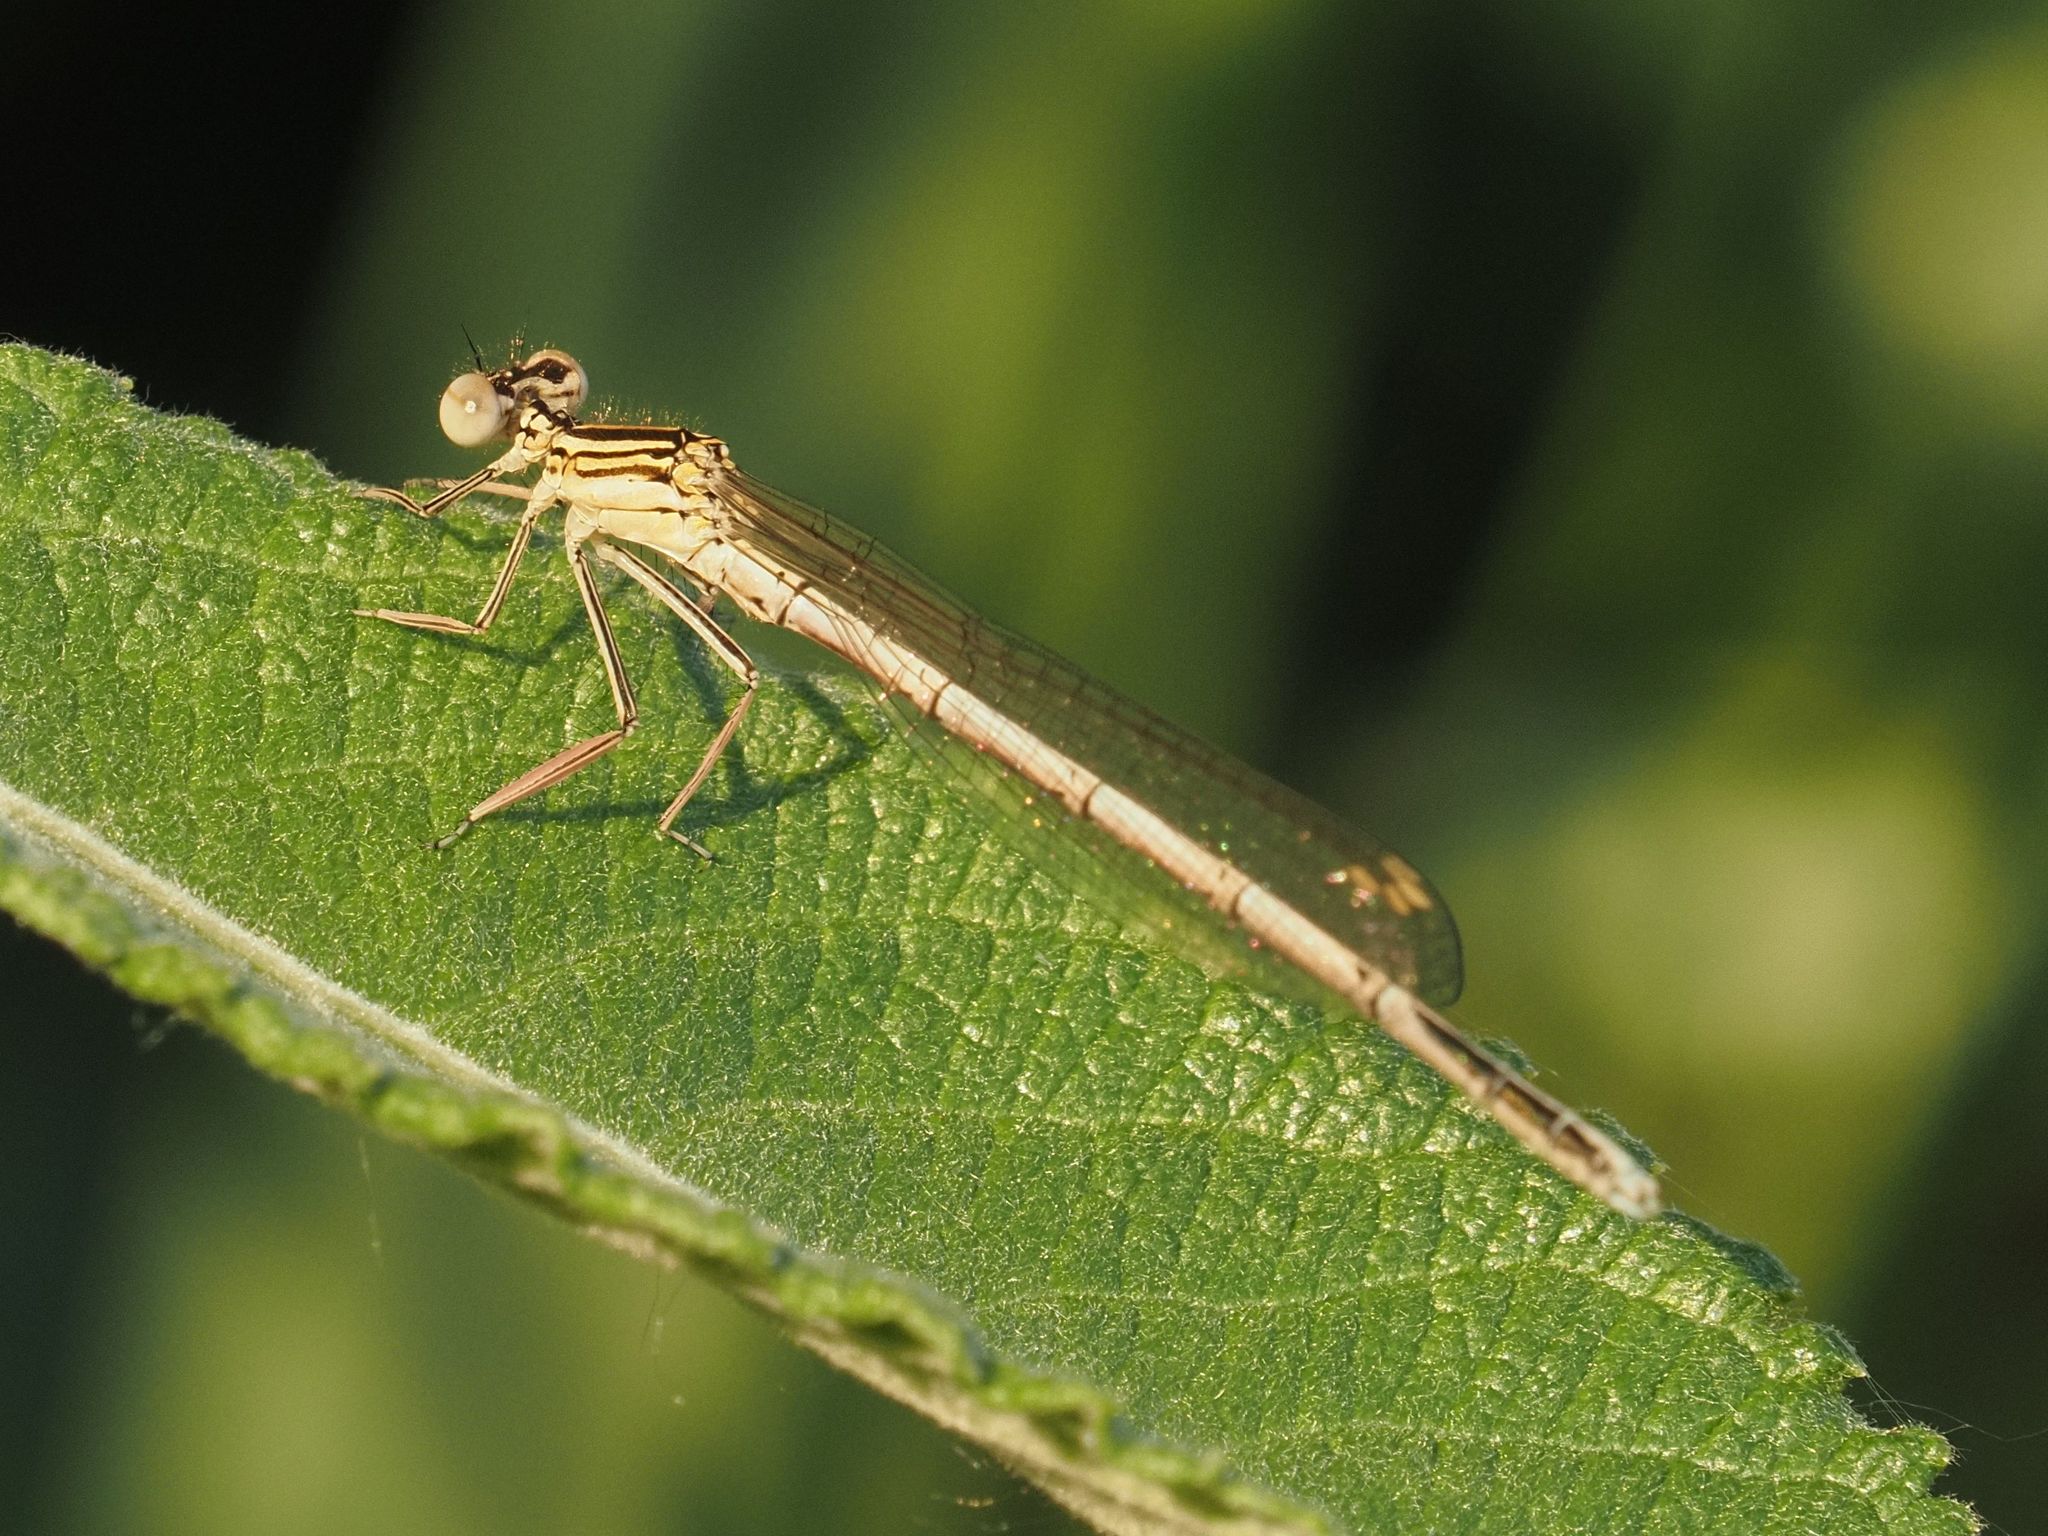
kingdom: Animalia
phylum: Arthropoda
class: Insecta
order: Odonata
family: Platycnemididae
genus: Platycnemis
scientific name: Platycnemis pennipes
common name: White-legged damselfly
